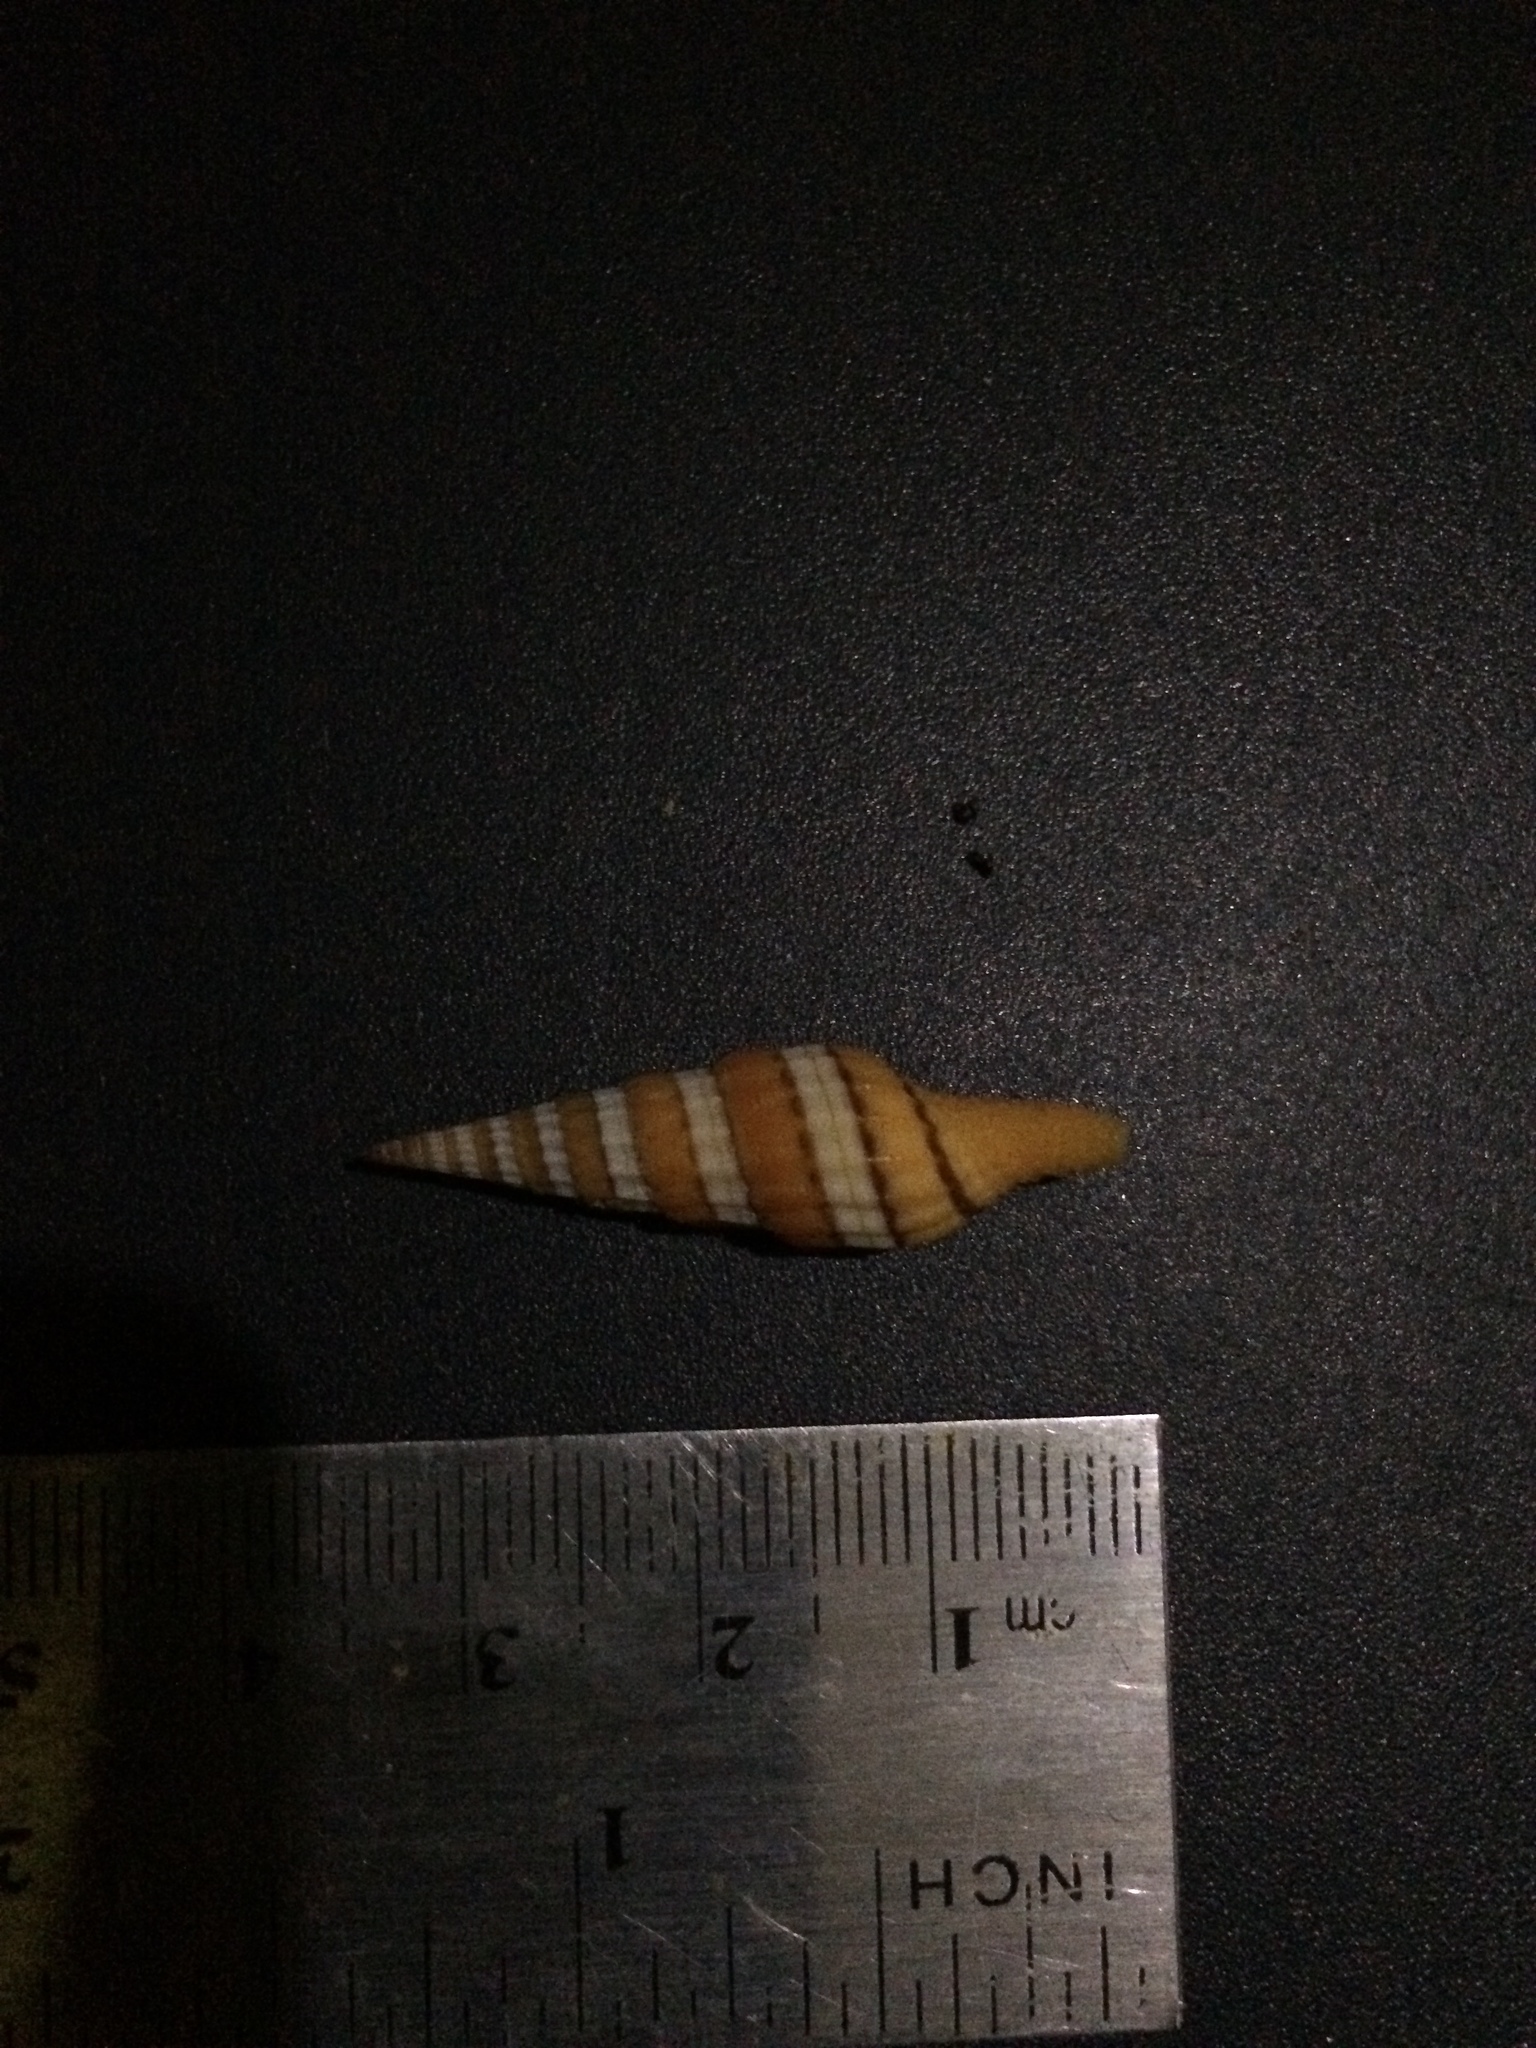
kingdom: Animalia
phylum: Mollusca
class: Gastropoda
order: Neogastropoda
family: Costellariidae
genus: Vexillum
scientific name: Vexillum citrinum
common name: Regal miter
